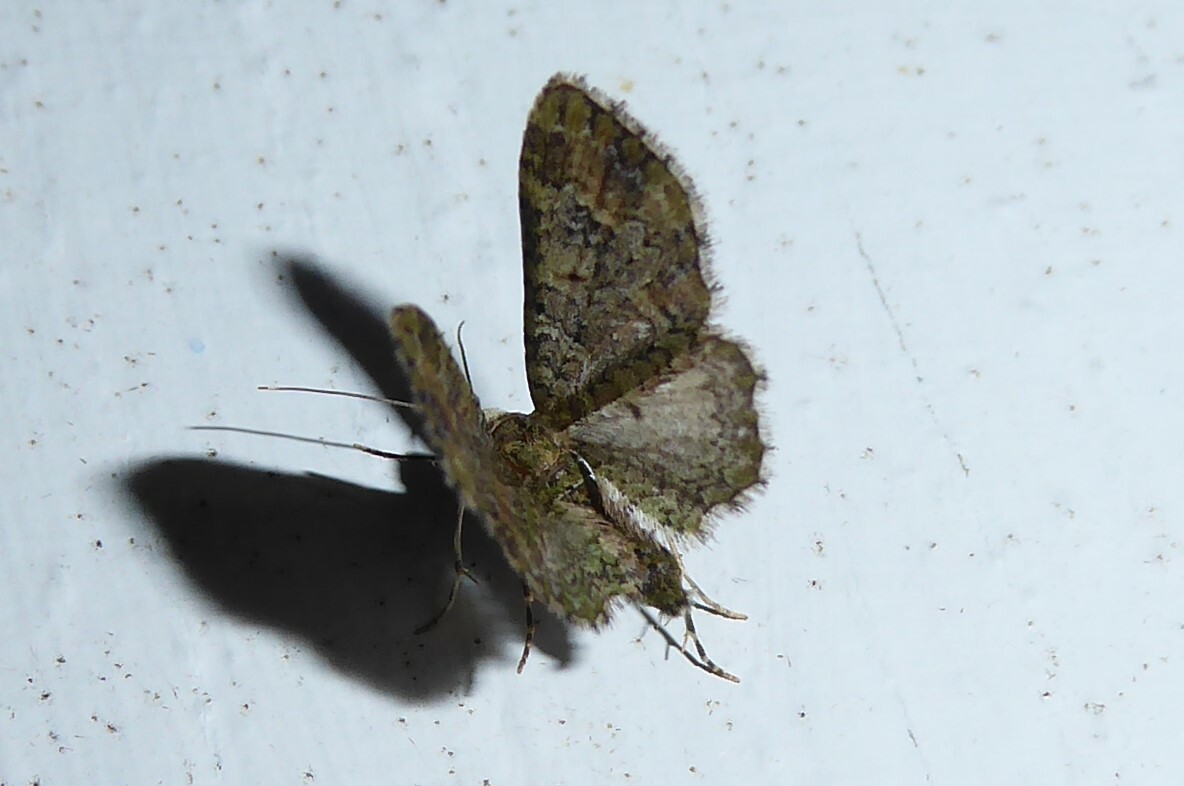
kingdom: Animalia
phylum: Arthropoda
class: Insecta
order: Lepidoptera
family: Geometridae
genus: Idaea
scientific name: Idaea mutanda
